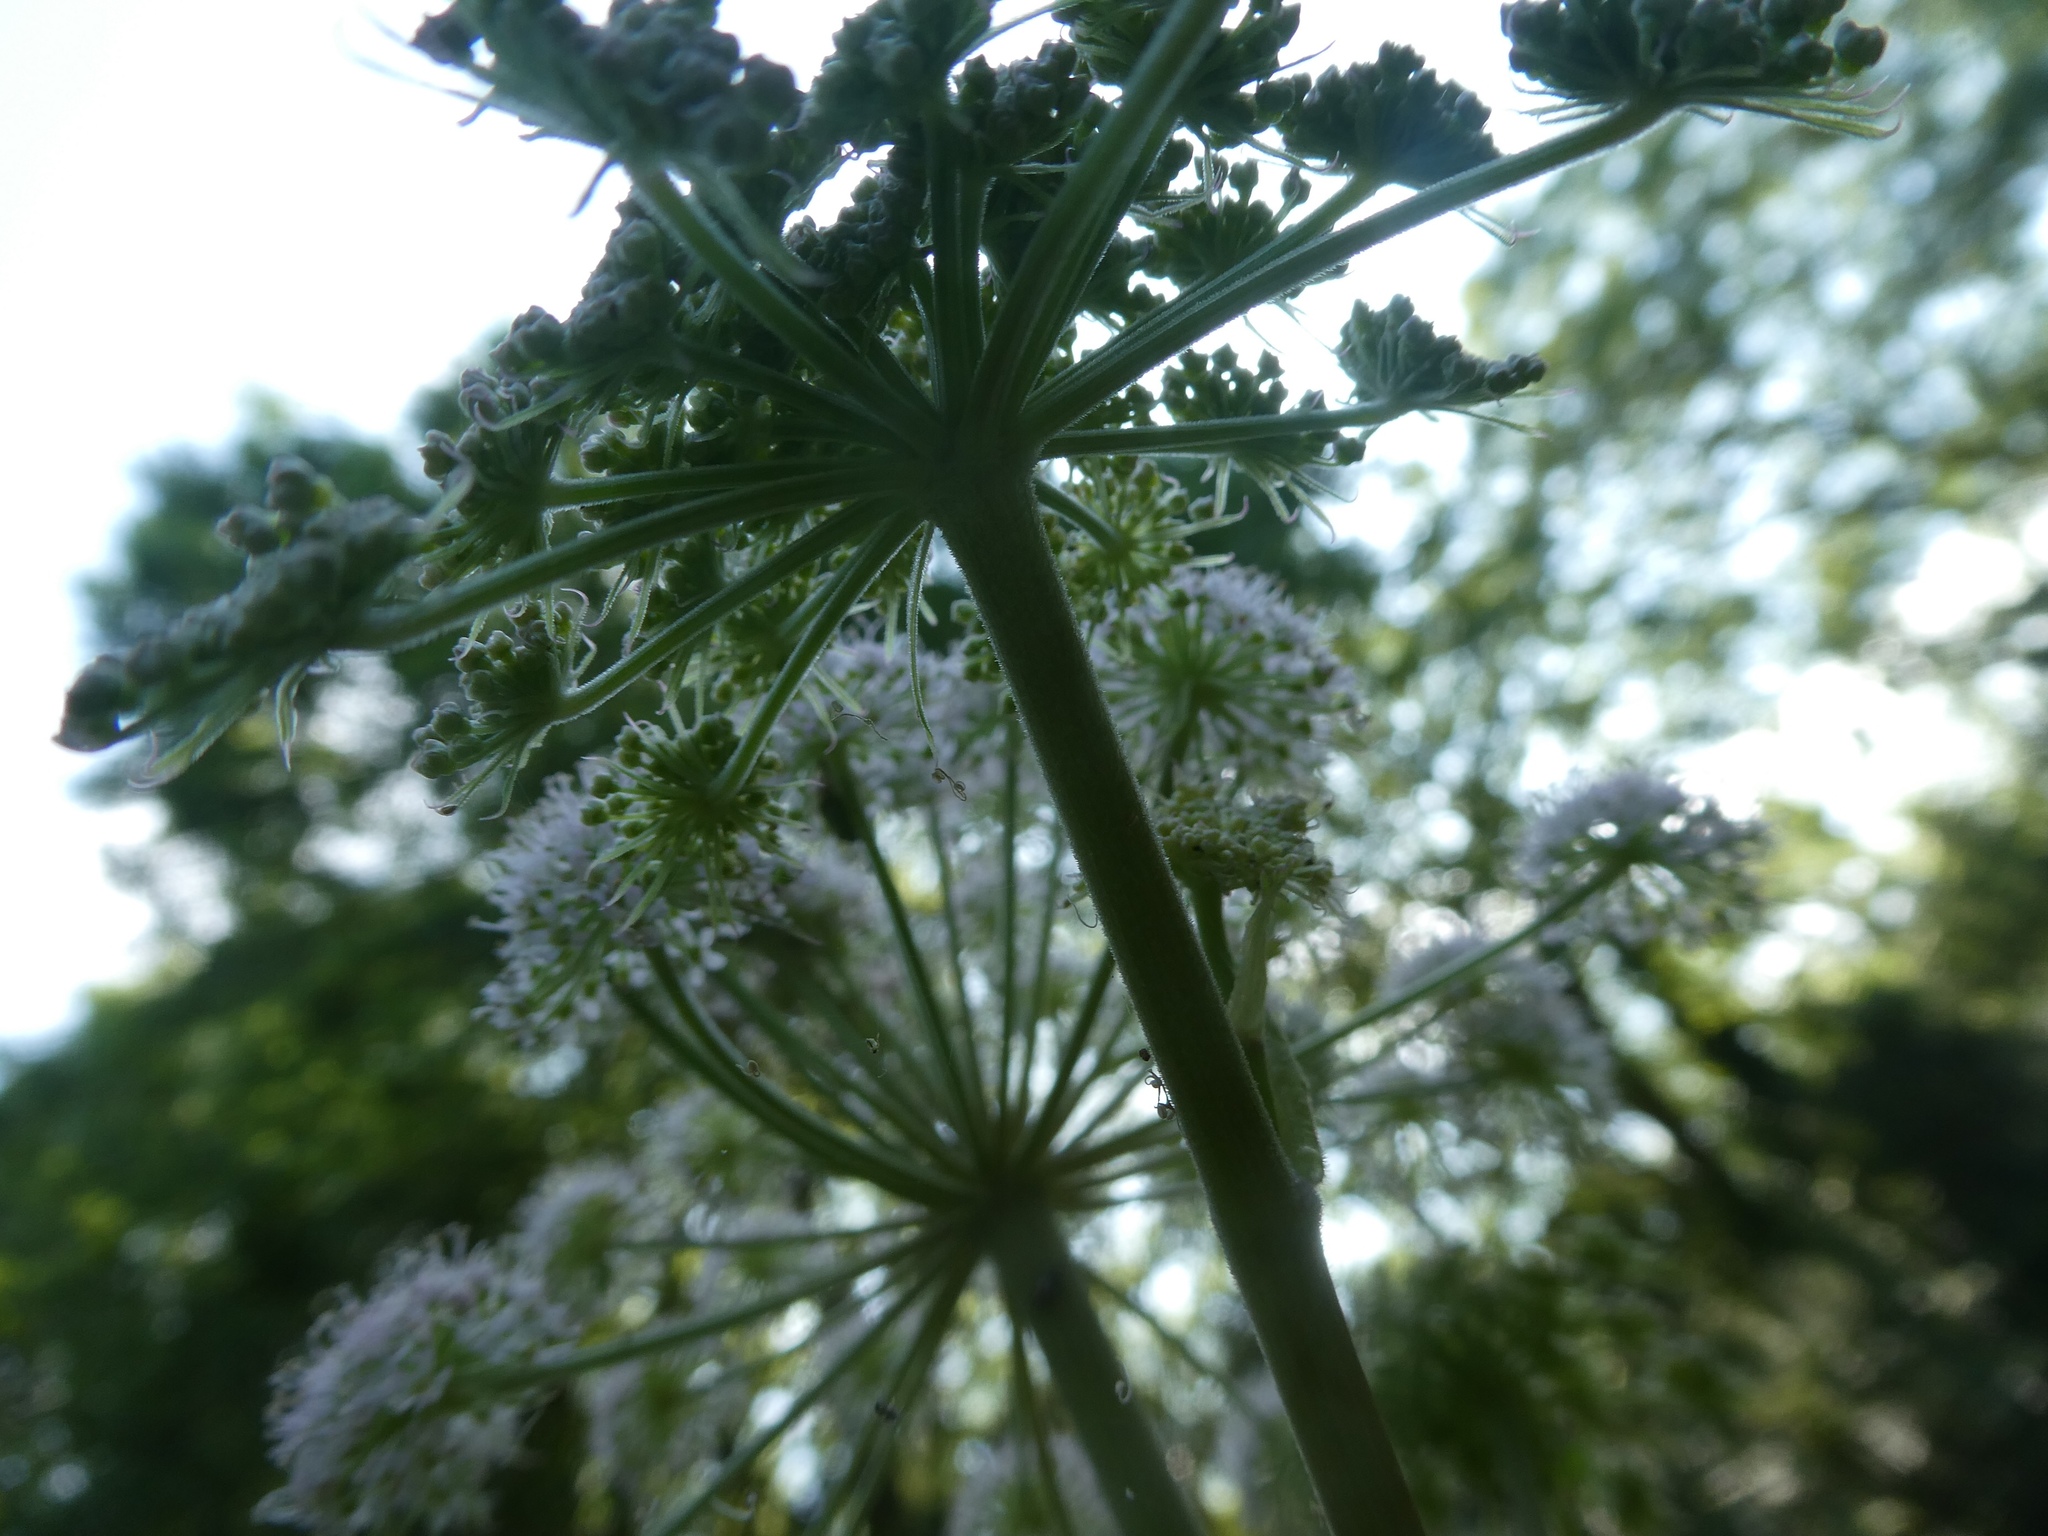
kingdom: Plantae
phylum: Tracheophyta
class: Magnoliopsida
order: Apiales
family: Apiaceae
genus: Angelica
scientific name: Angelica sylvestris
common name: Wild angelica
